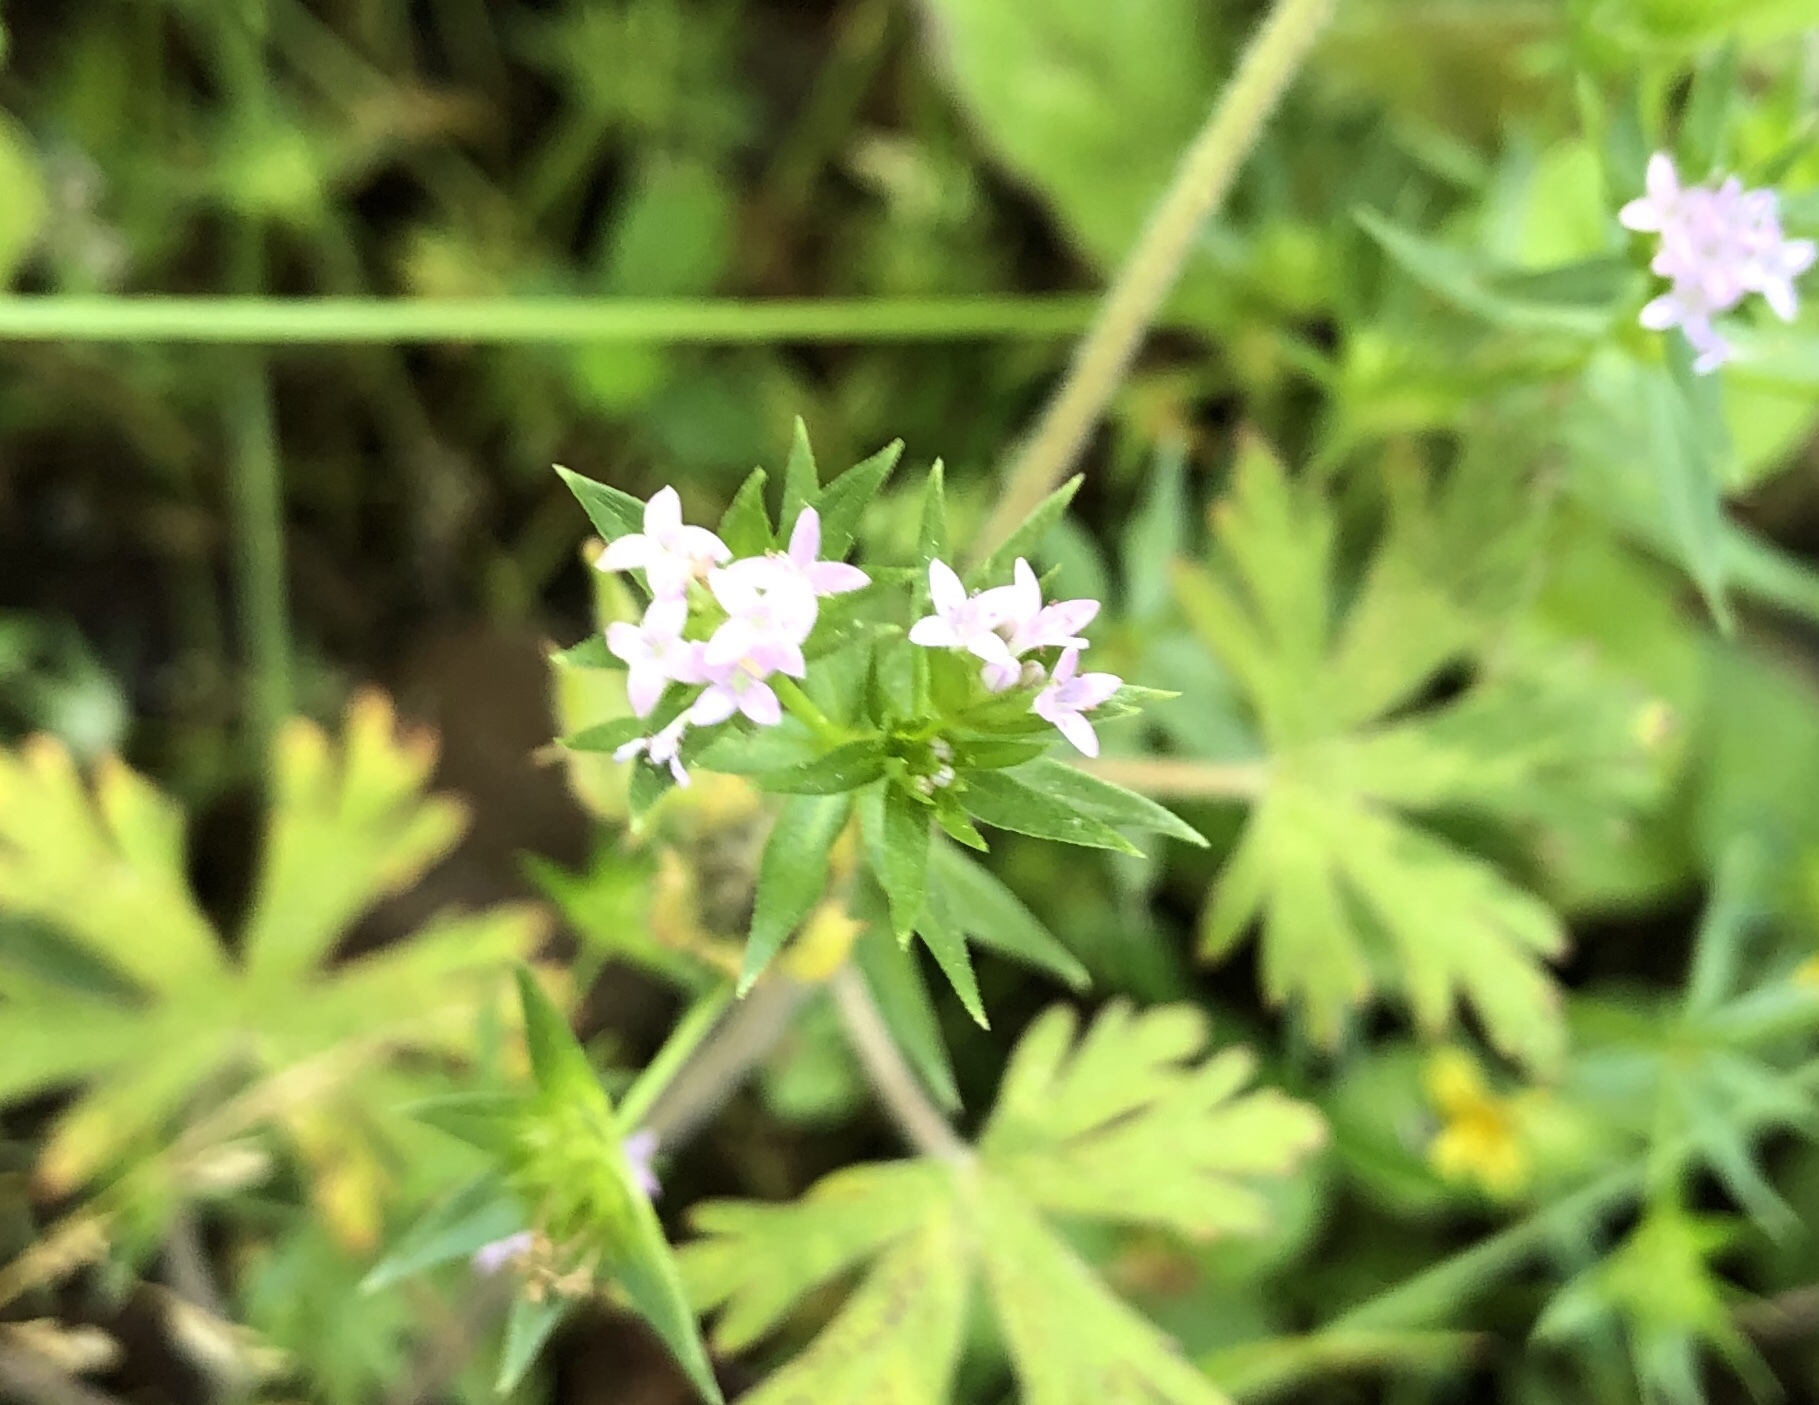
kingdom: Plantae
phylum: Tracheophyta
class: Magnoliopsida
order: Gentianales
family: Rubiaceae
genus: Sherardia
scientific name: Sherardia arvensis
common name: Field madder
